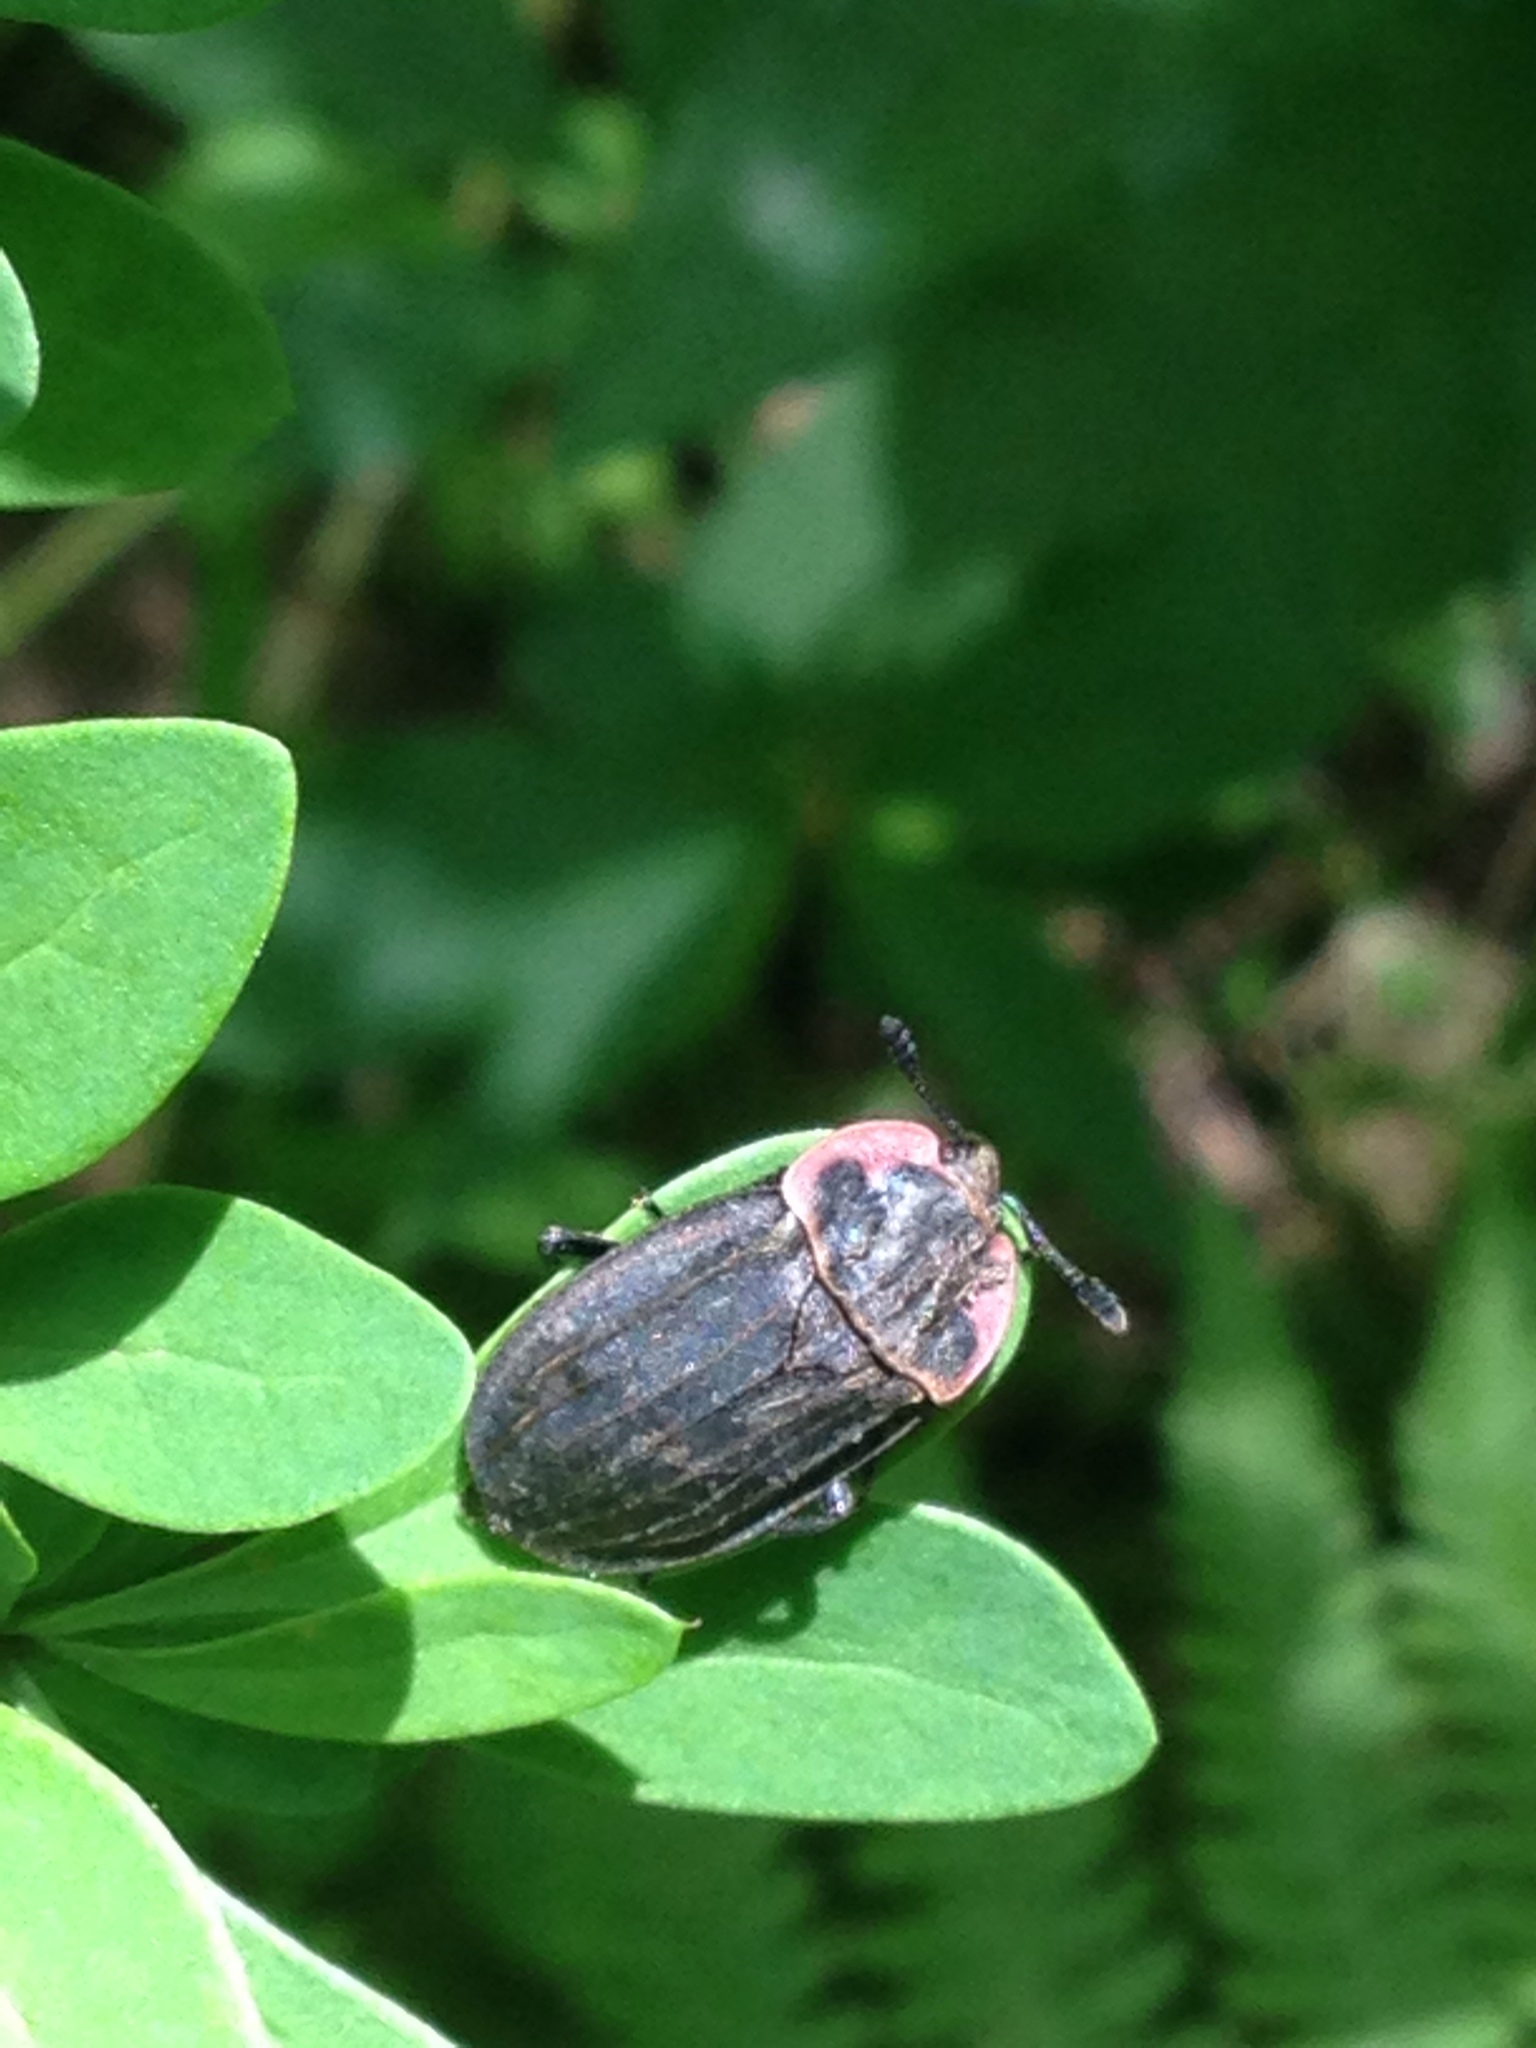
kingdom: Animalia
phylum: Arthropoda
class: Insecta
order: Coleoptera
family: Staphylinidae
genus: Oiceoptoma
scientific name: Oiceoptoma noveboracense
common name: Margined carrion beetle
